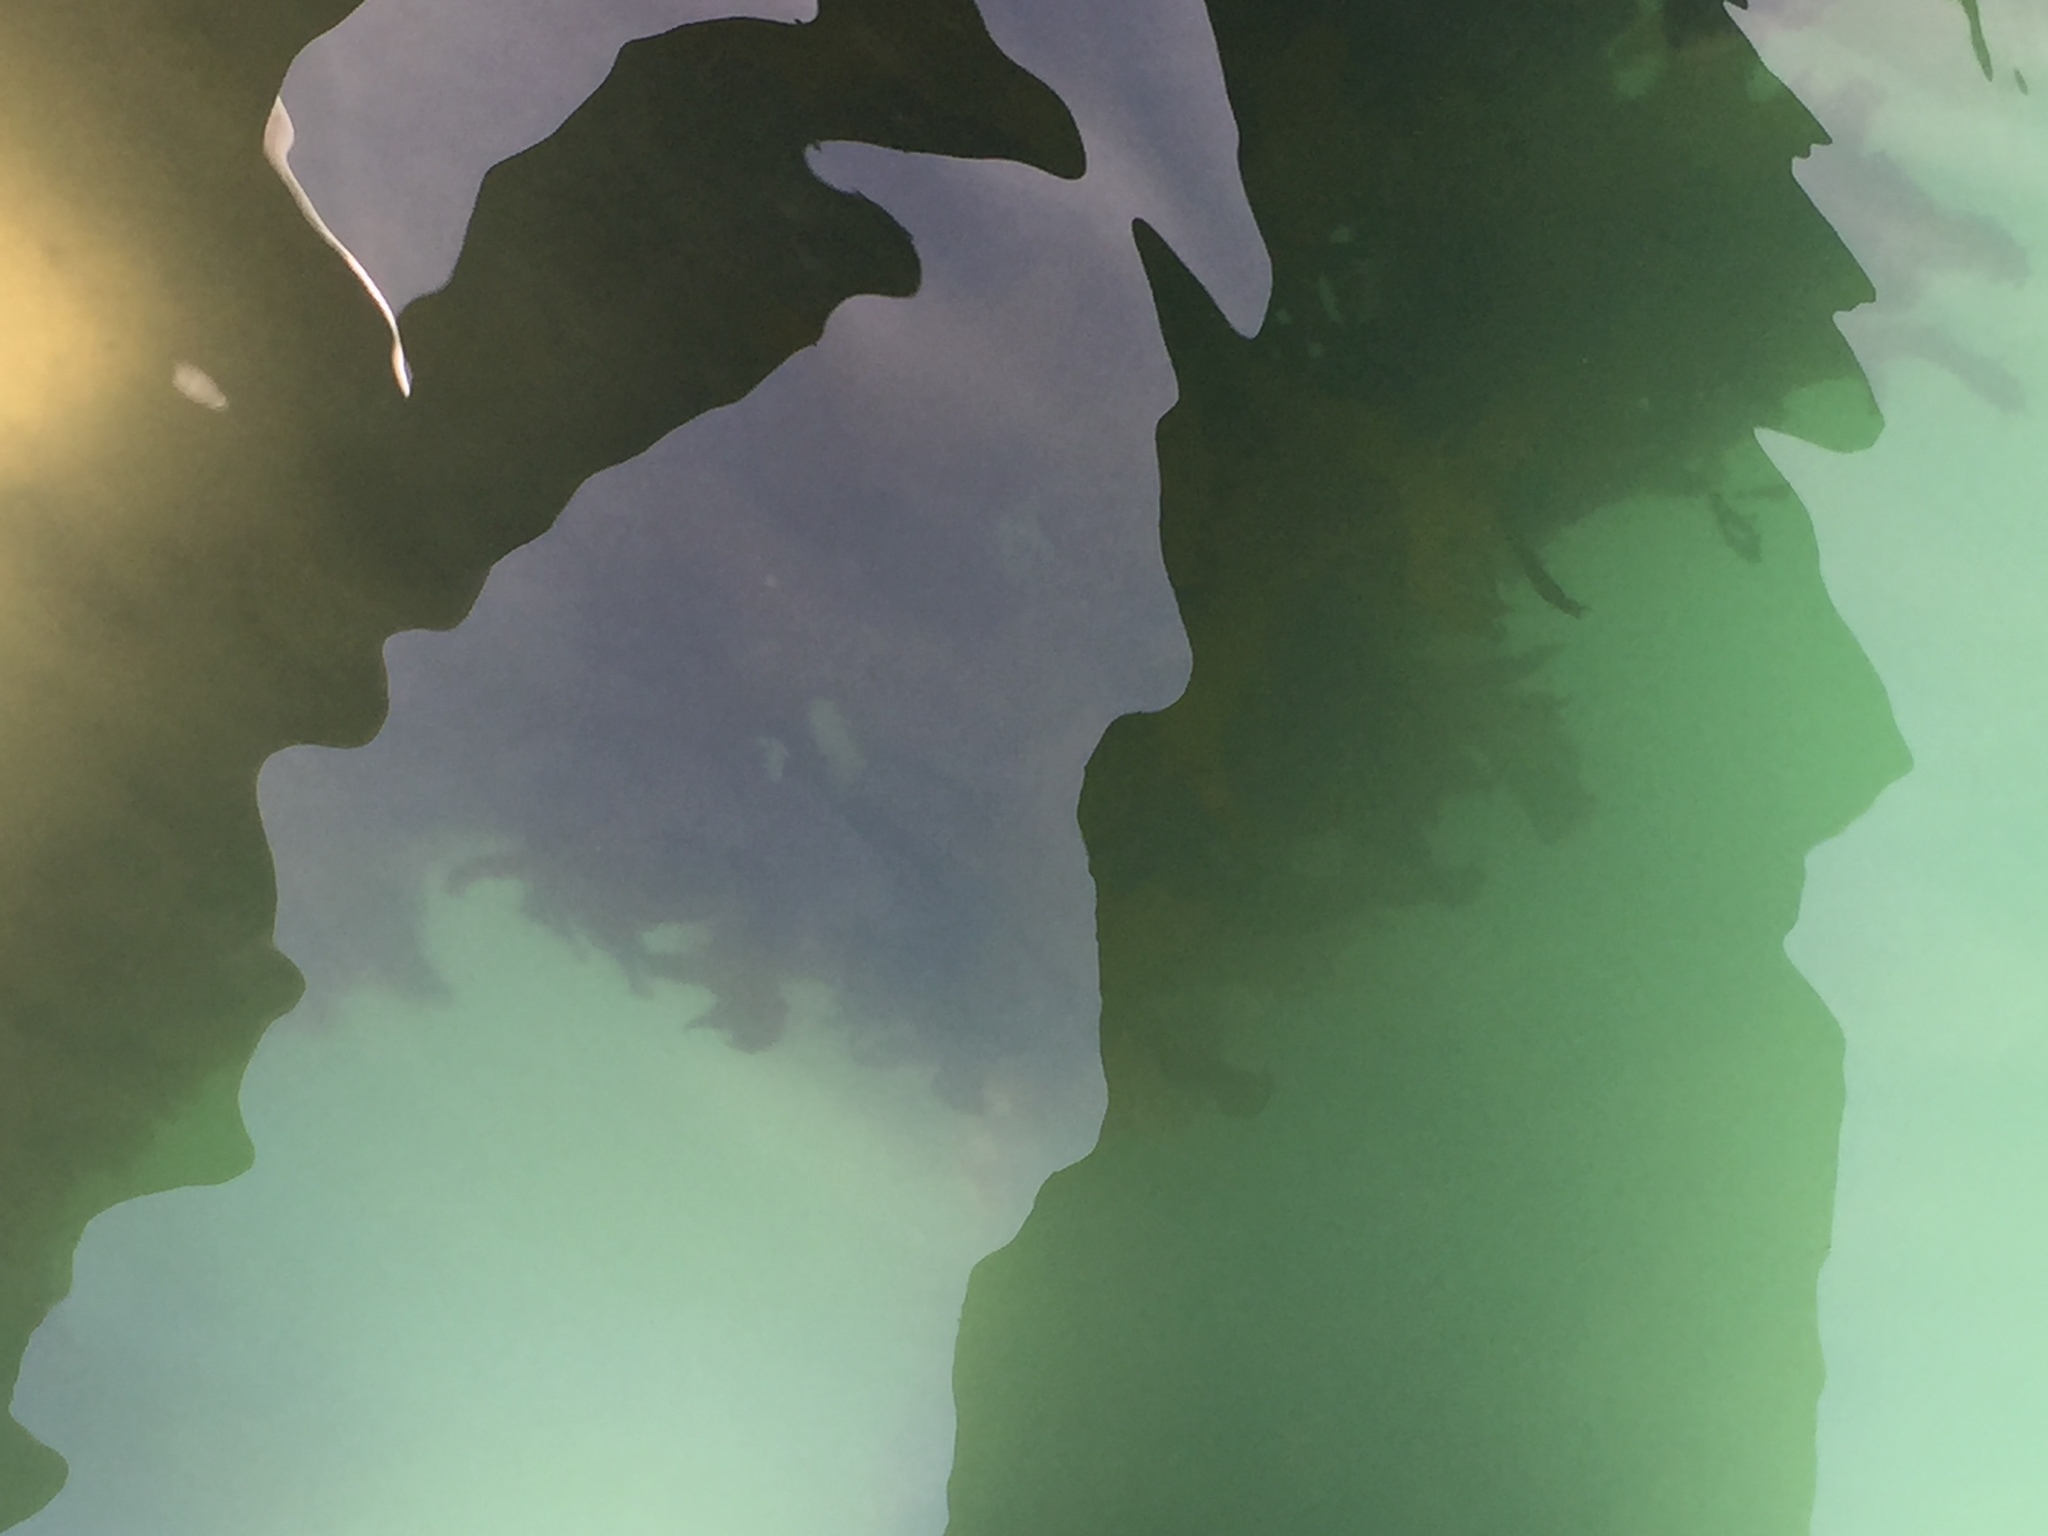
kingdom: Chromista
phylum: Ochrophyta
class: Phaeophyceae
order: Laminariales
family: Lessoniaceae
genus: Ecklonia
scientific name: Ecklonia radiata
